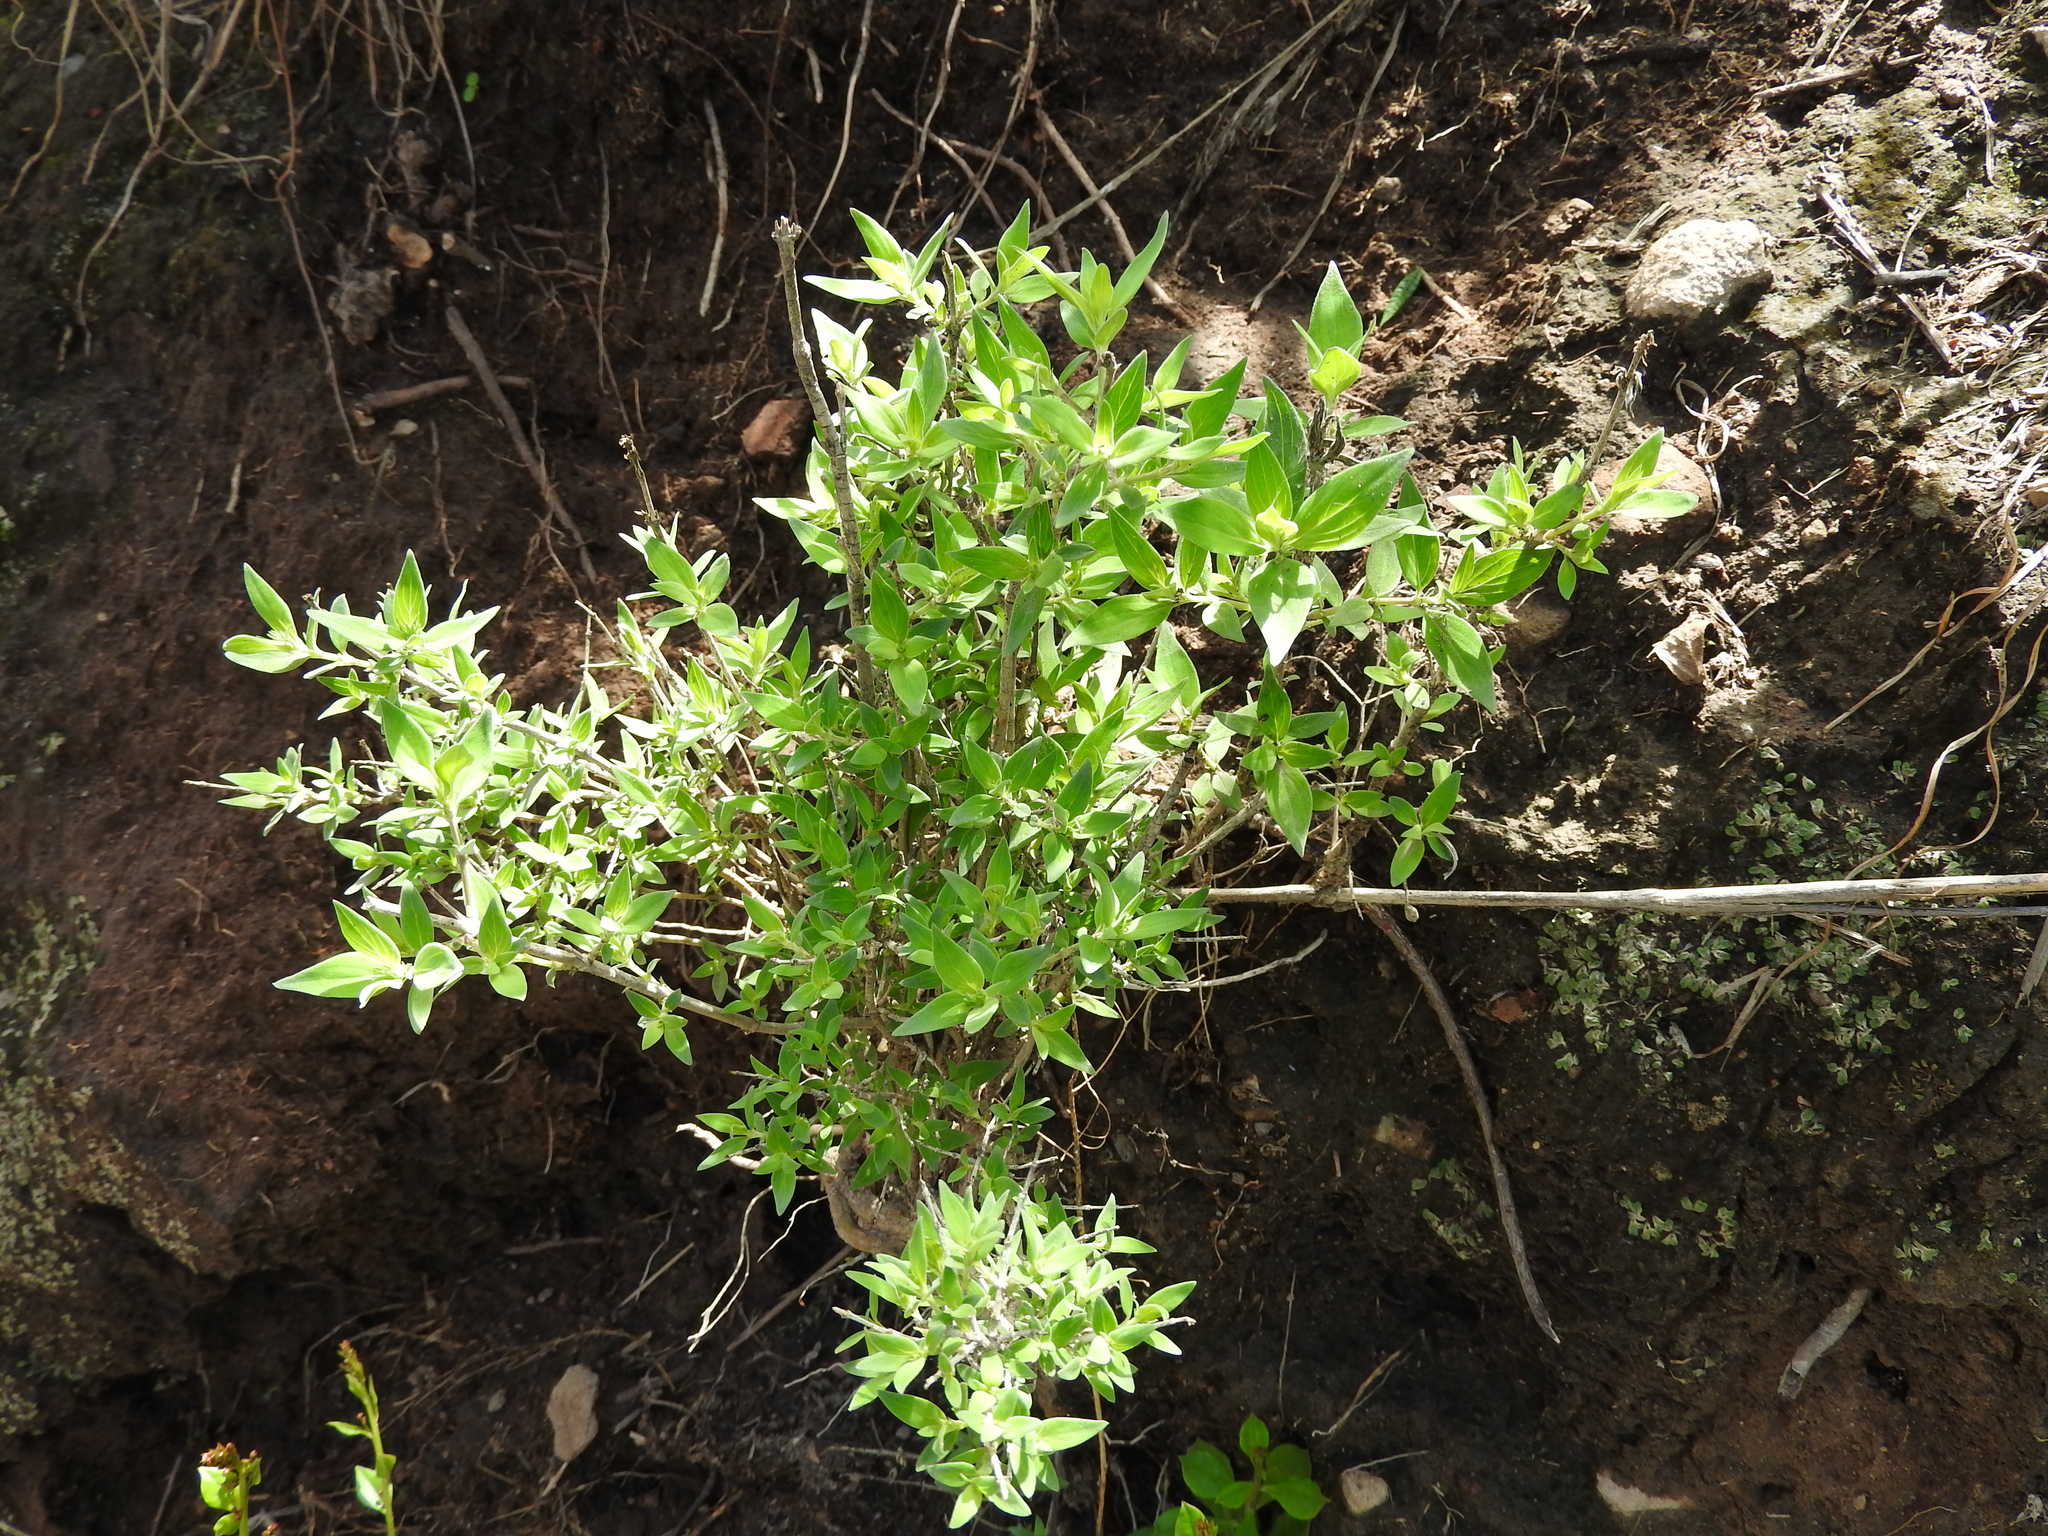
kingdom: Plantae
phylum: Tracheophyta
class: Magnoliopsida
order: Gentianales
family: Rubiaceae
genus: Bouvardia
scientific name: Bouvardia ternifolia
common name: Scarlet bouvardia
